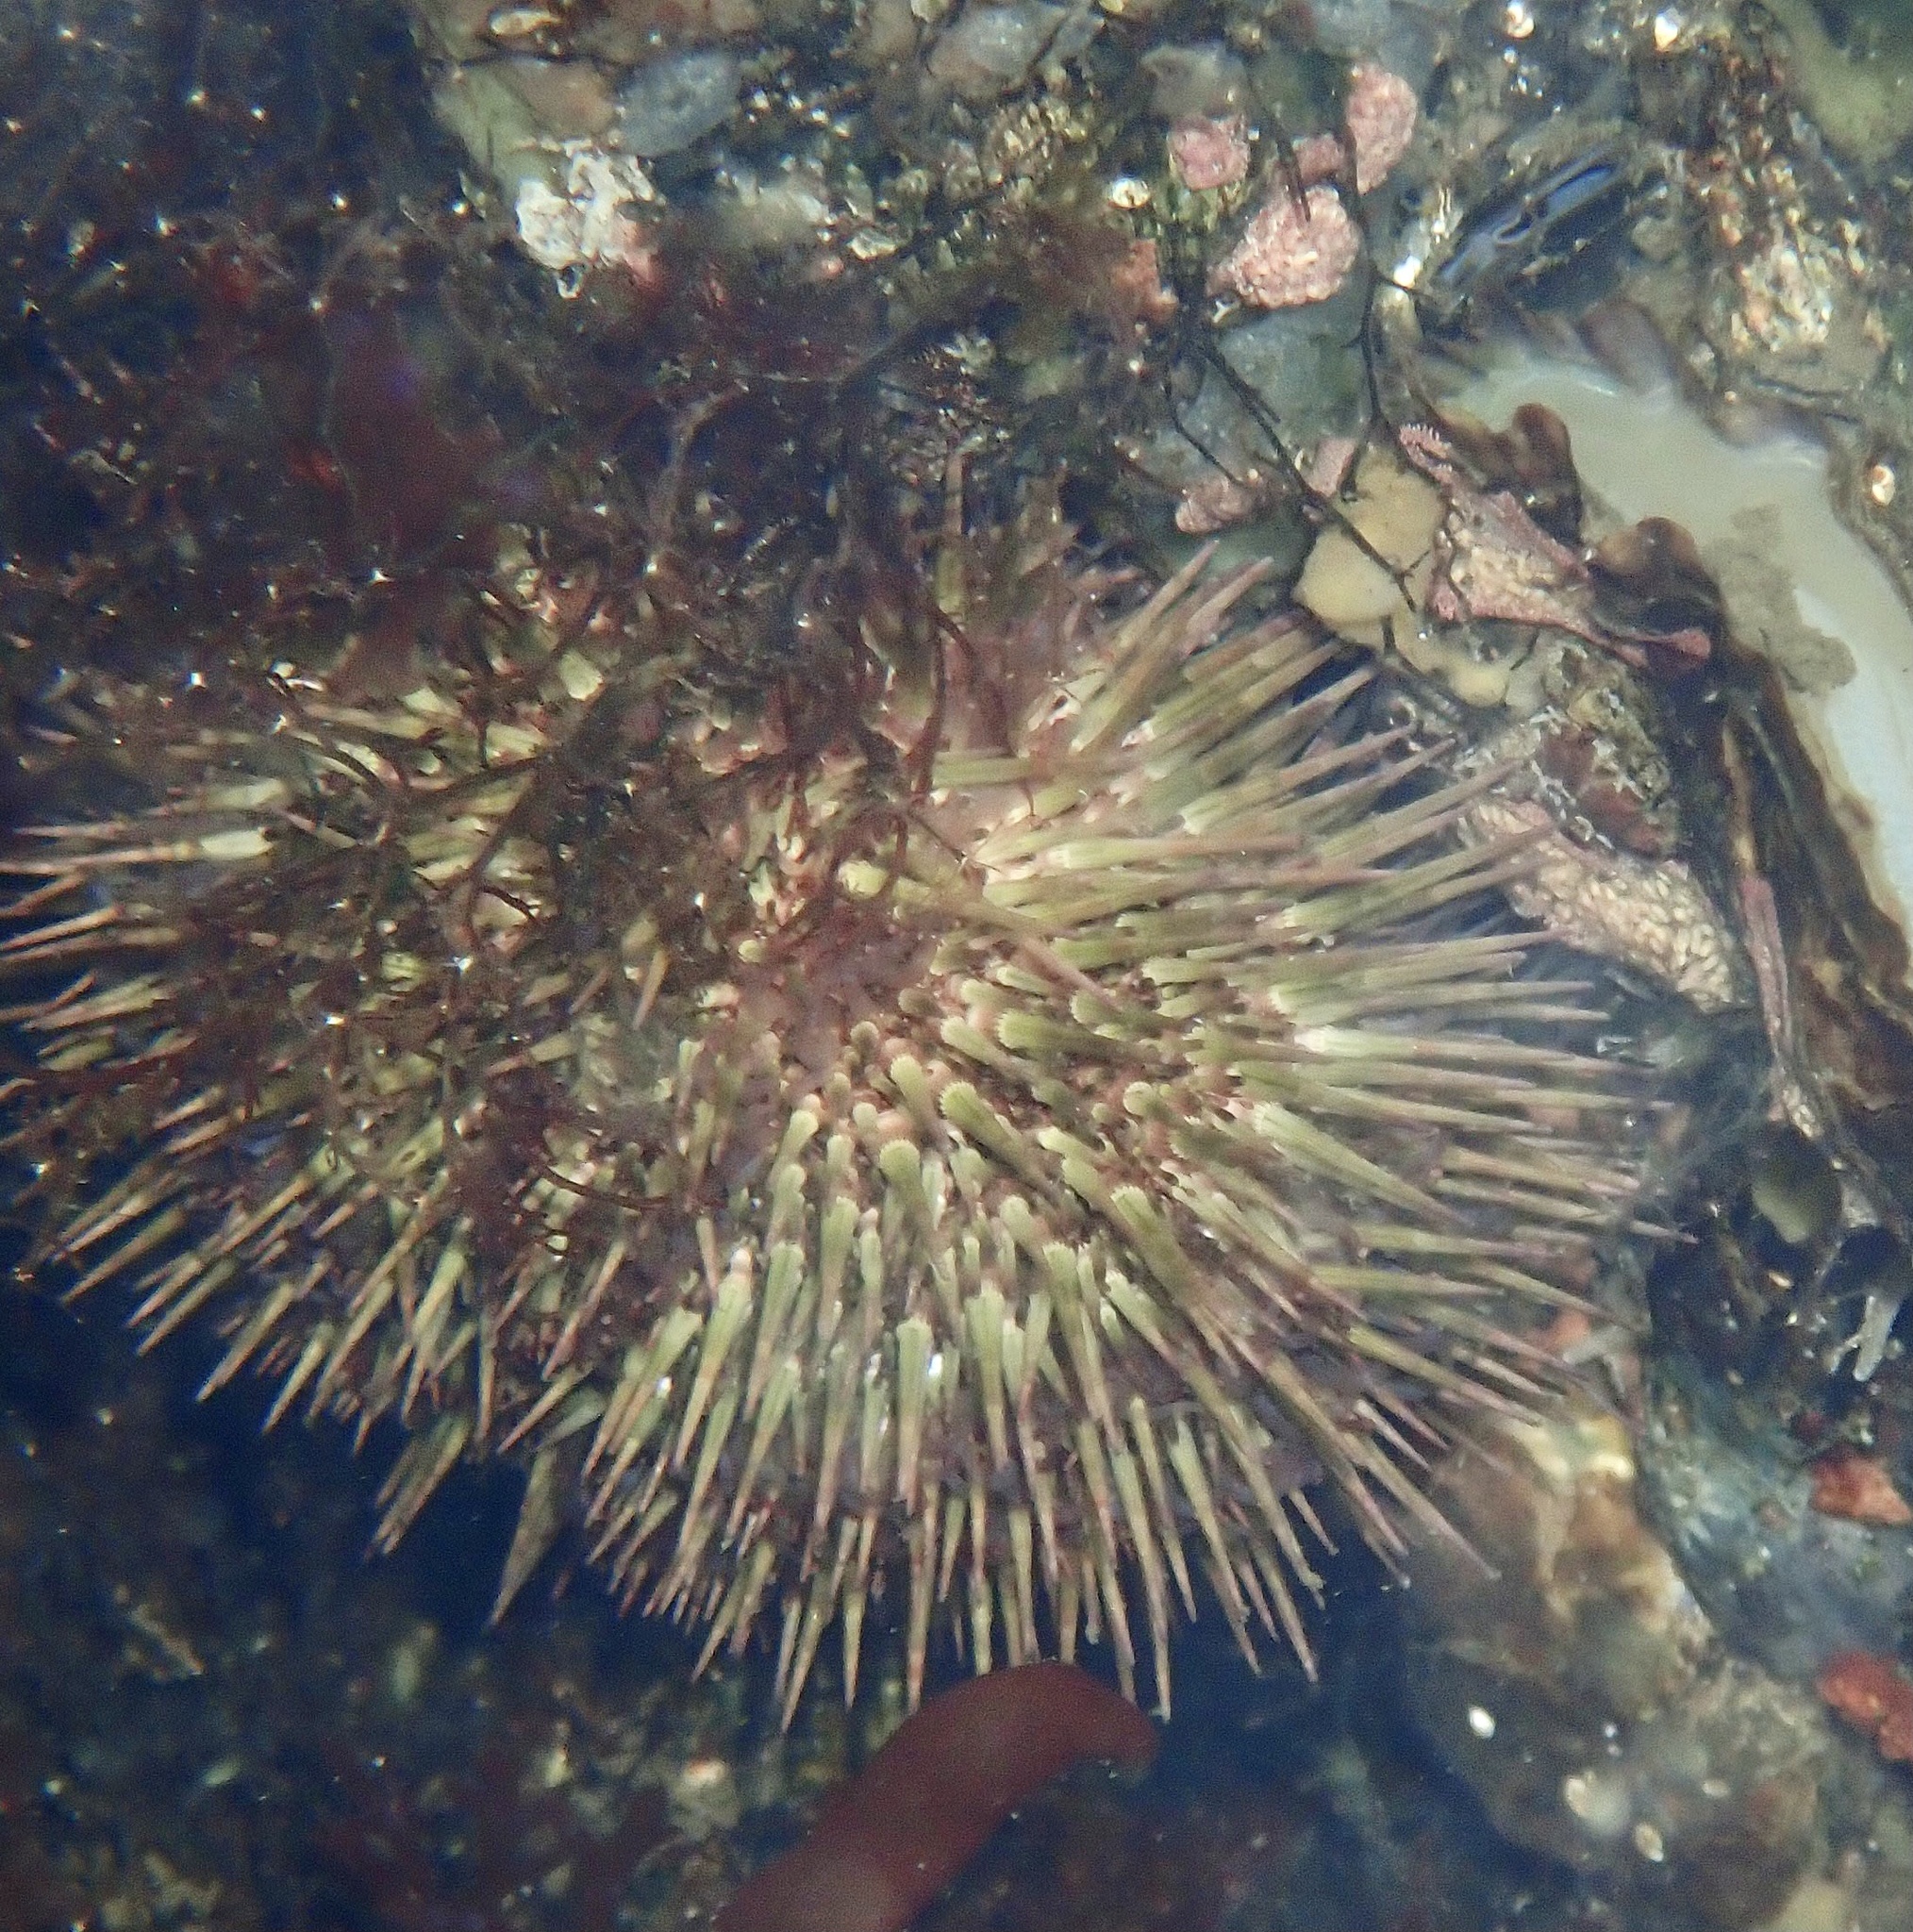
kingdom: Animalia
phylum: Echinodermata
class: Echinoidea
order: Camarodonta
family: Parechinidae
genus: Psammechinus
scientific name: Psammechinus miliaris
